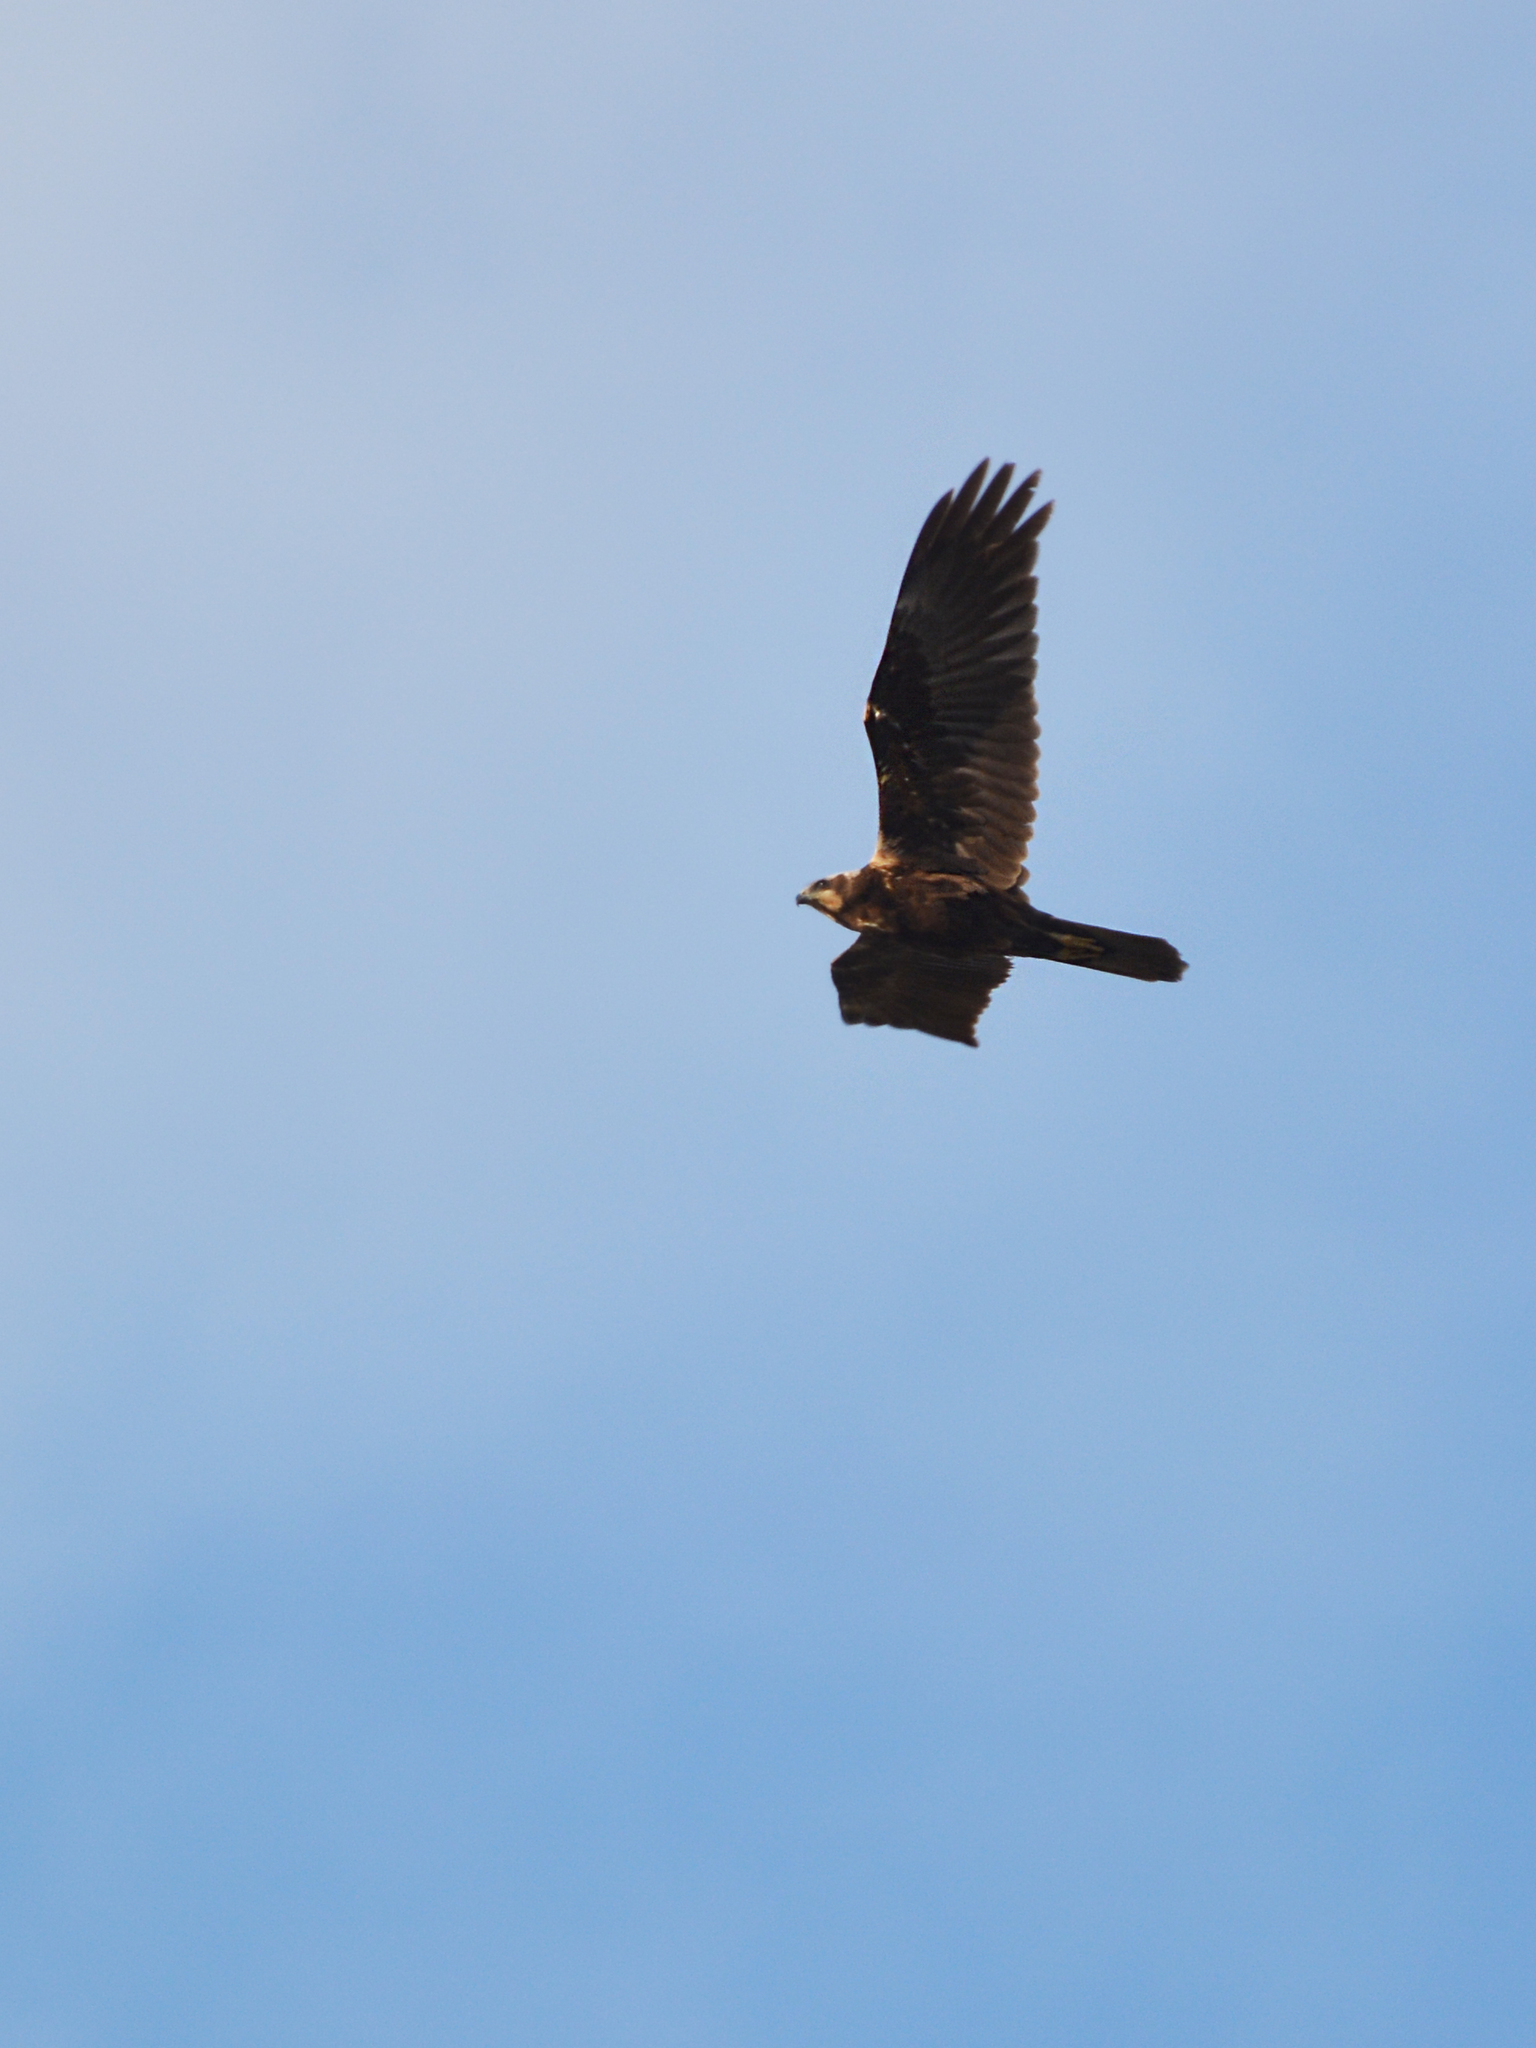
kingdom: Animalia
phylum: Chordata
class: Aves
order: Accipitriformes
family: Accipitridae
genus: Circus
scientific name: Circus aeruginosus
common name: Western marsh harrier
